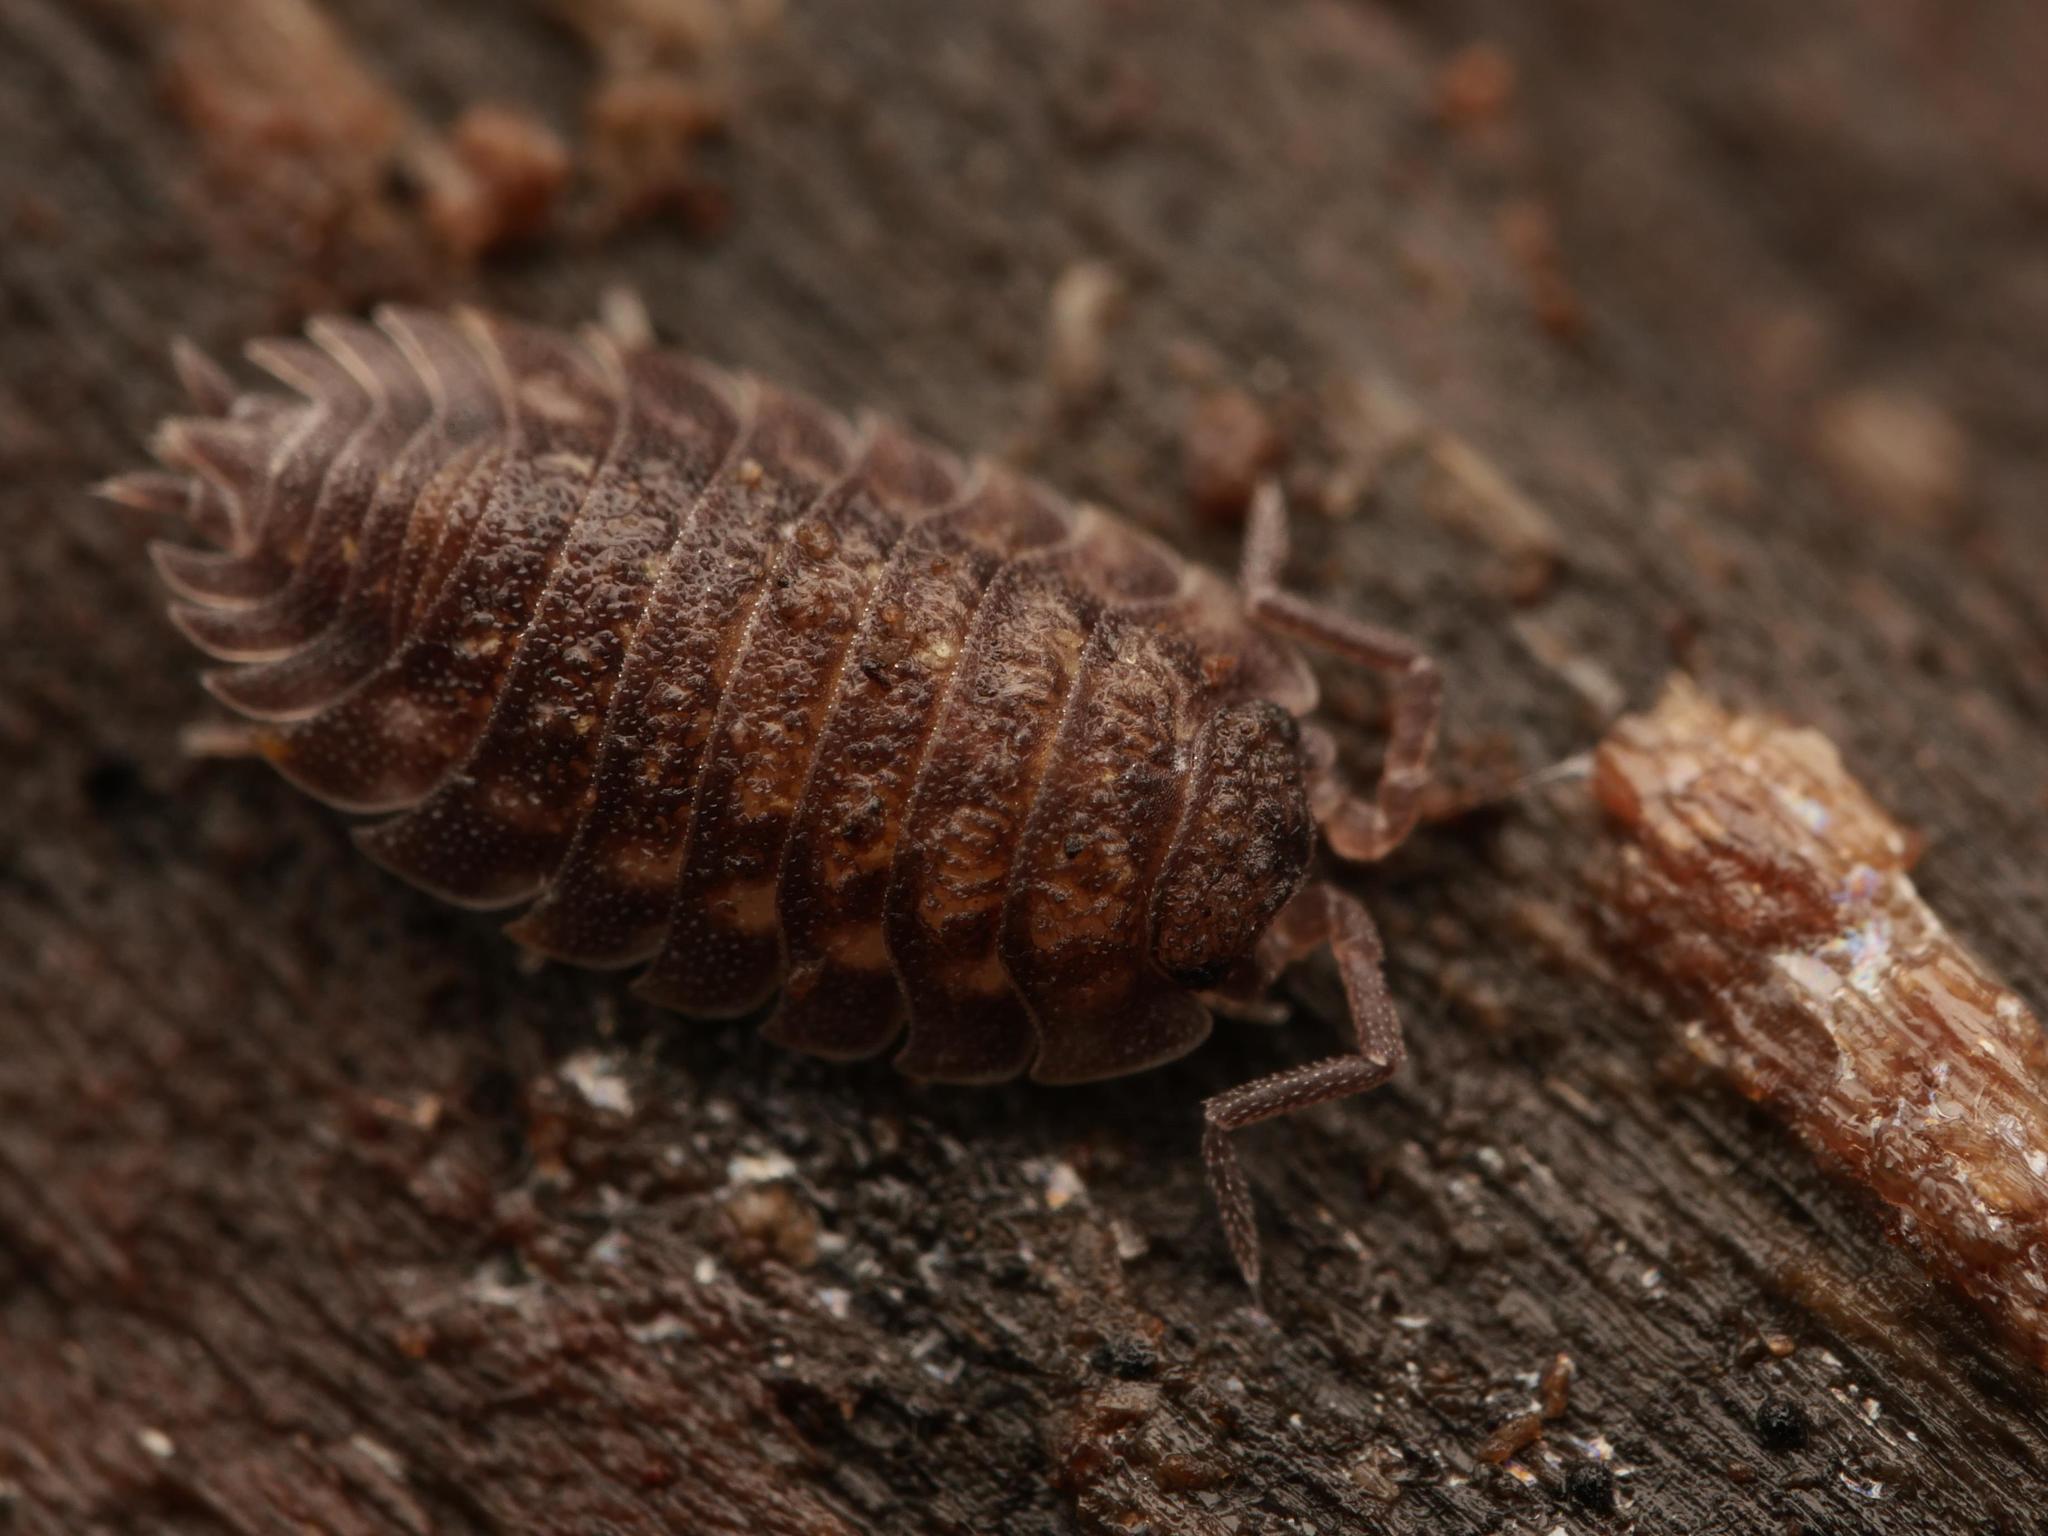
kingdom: Animalia
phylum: Arthropoda
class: Malacostraca
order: Isopoda
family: Oniscidae
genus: Oniscus
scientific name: Oniscus asellus
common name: Common shiny woodlouse
